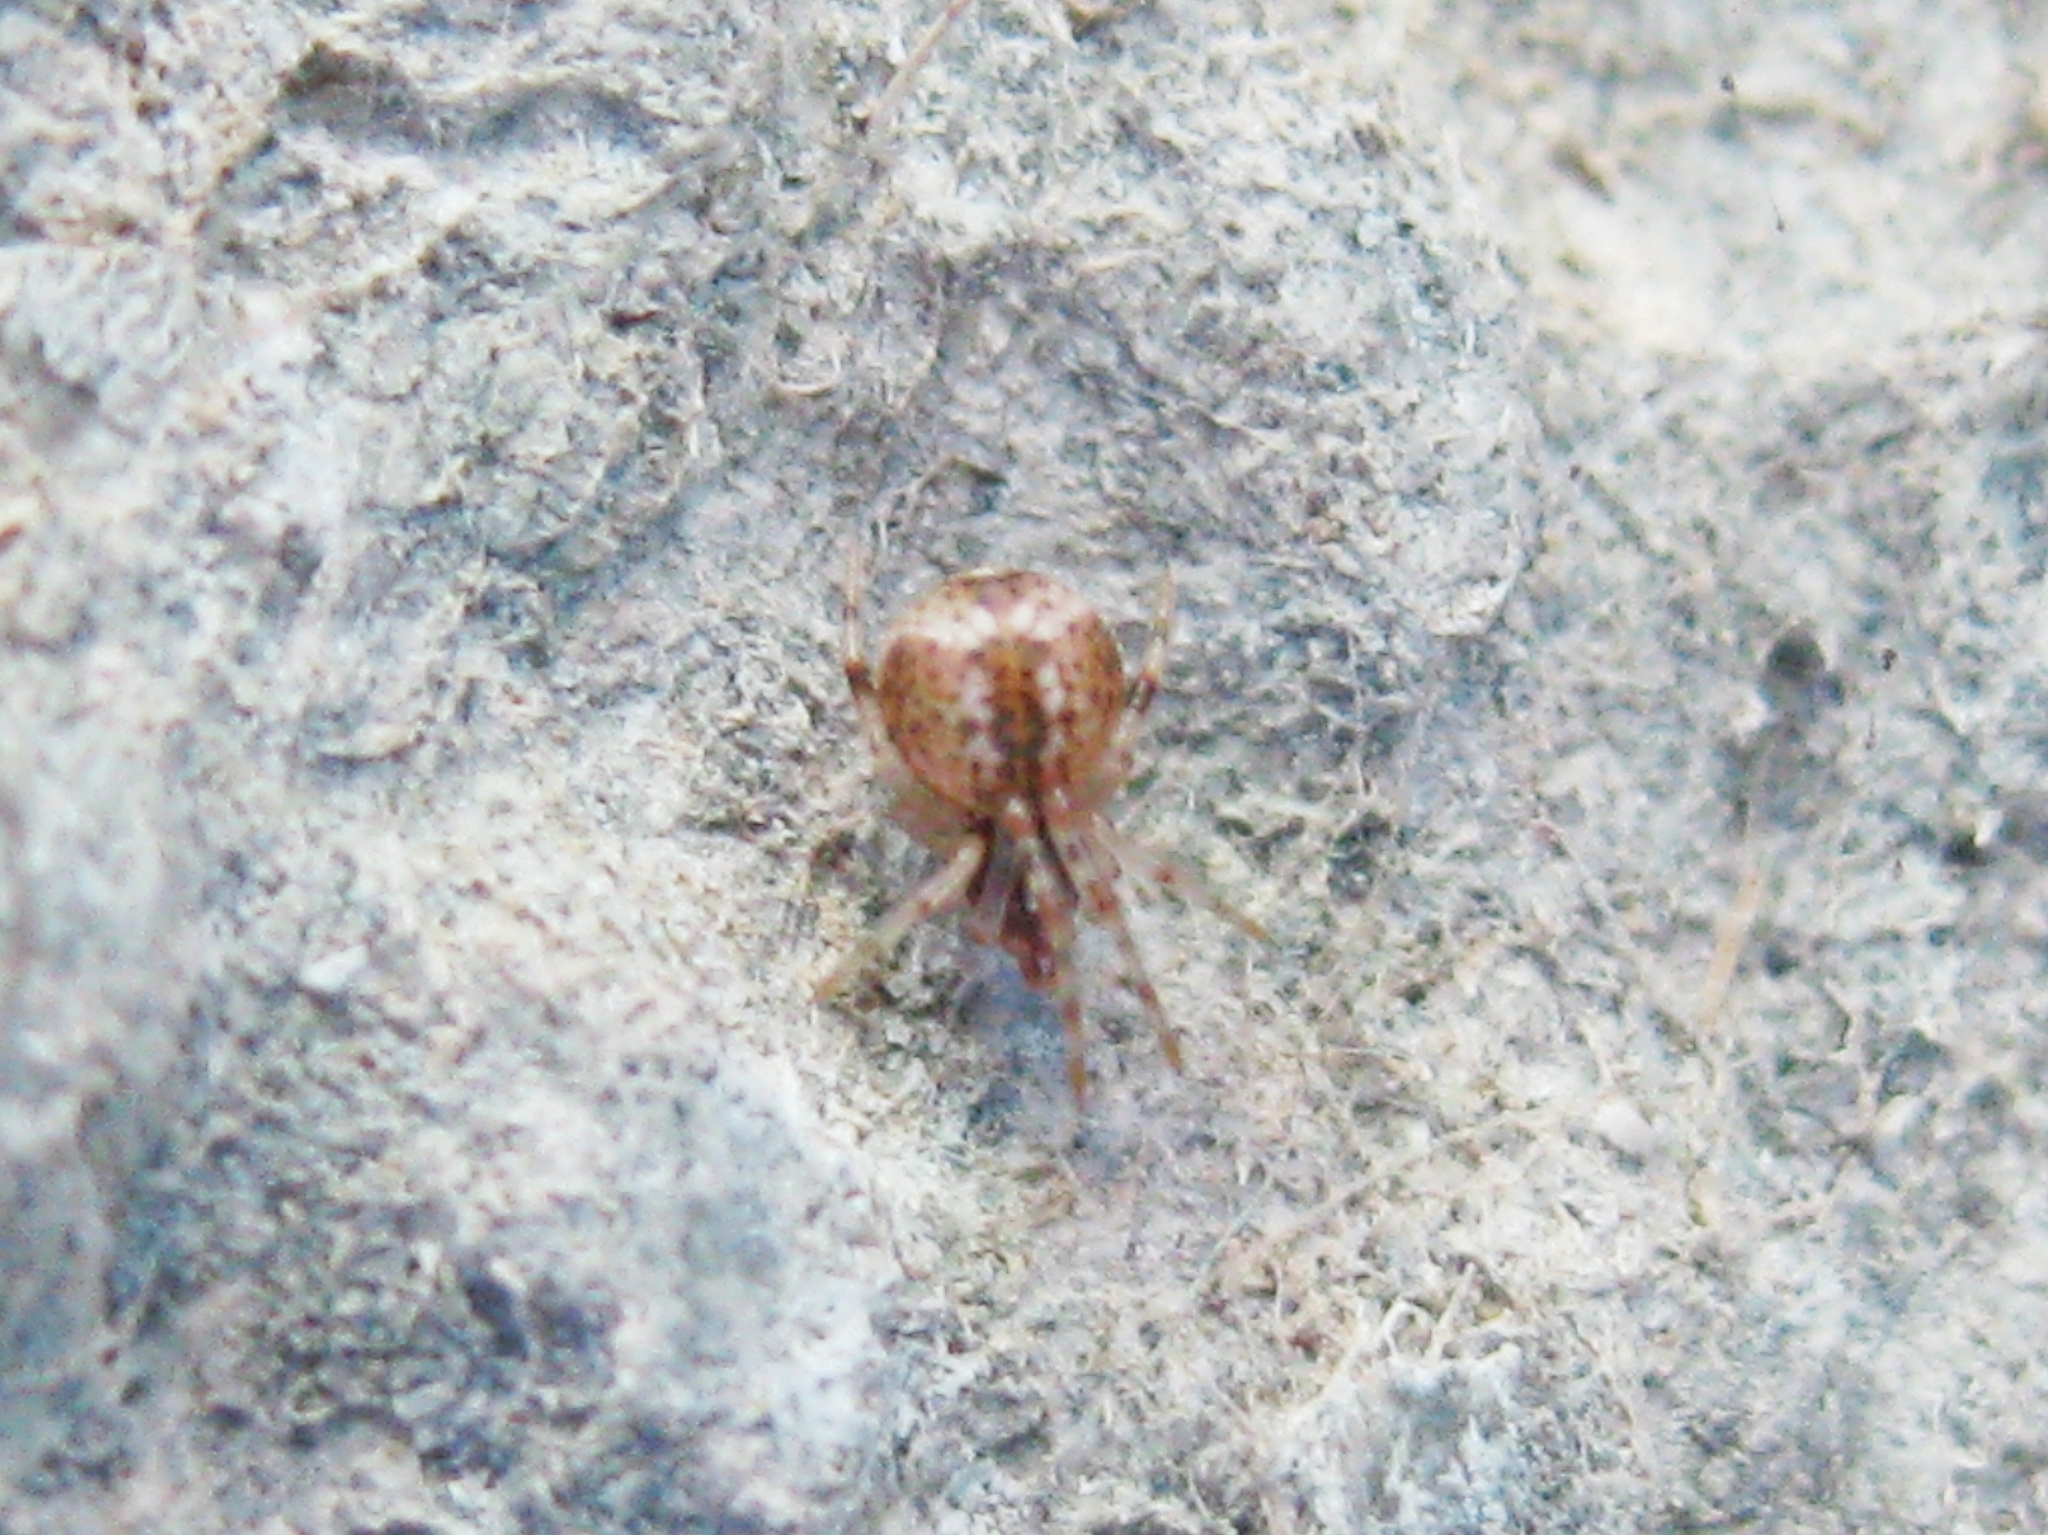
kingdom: Animalia
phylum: Arthropoda
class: Arachnida
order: Araneae
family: Theridiidae
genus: Parasteatoda
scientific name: Parasteatoda
